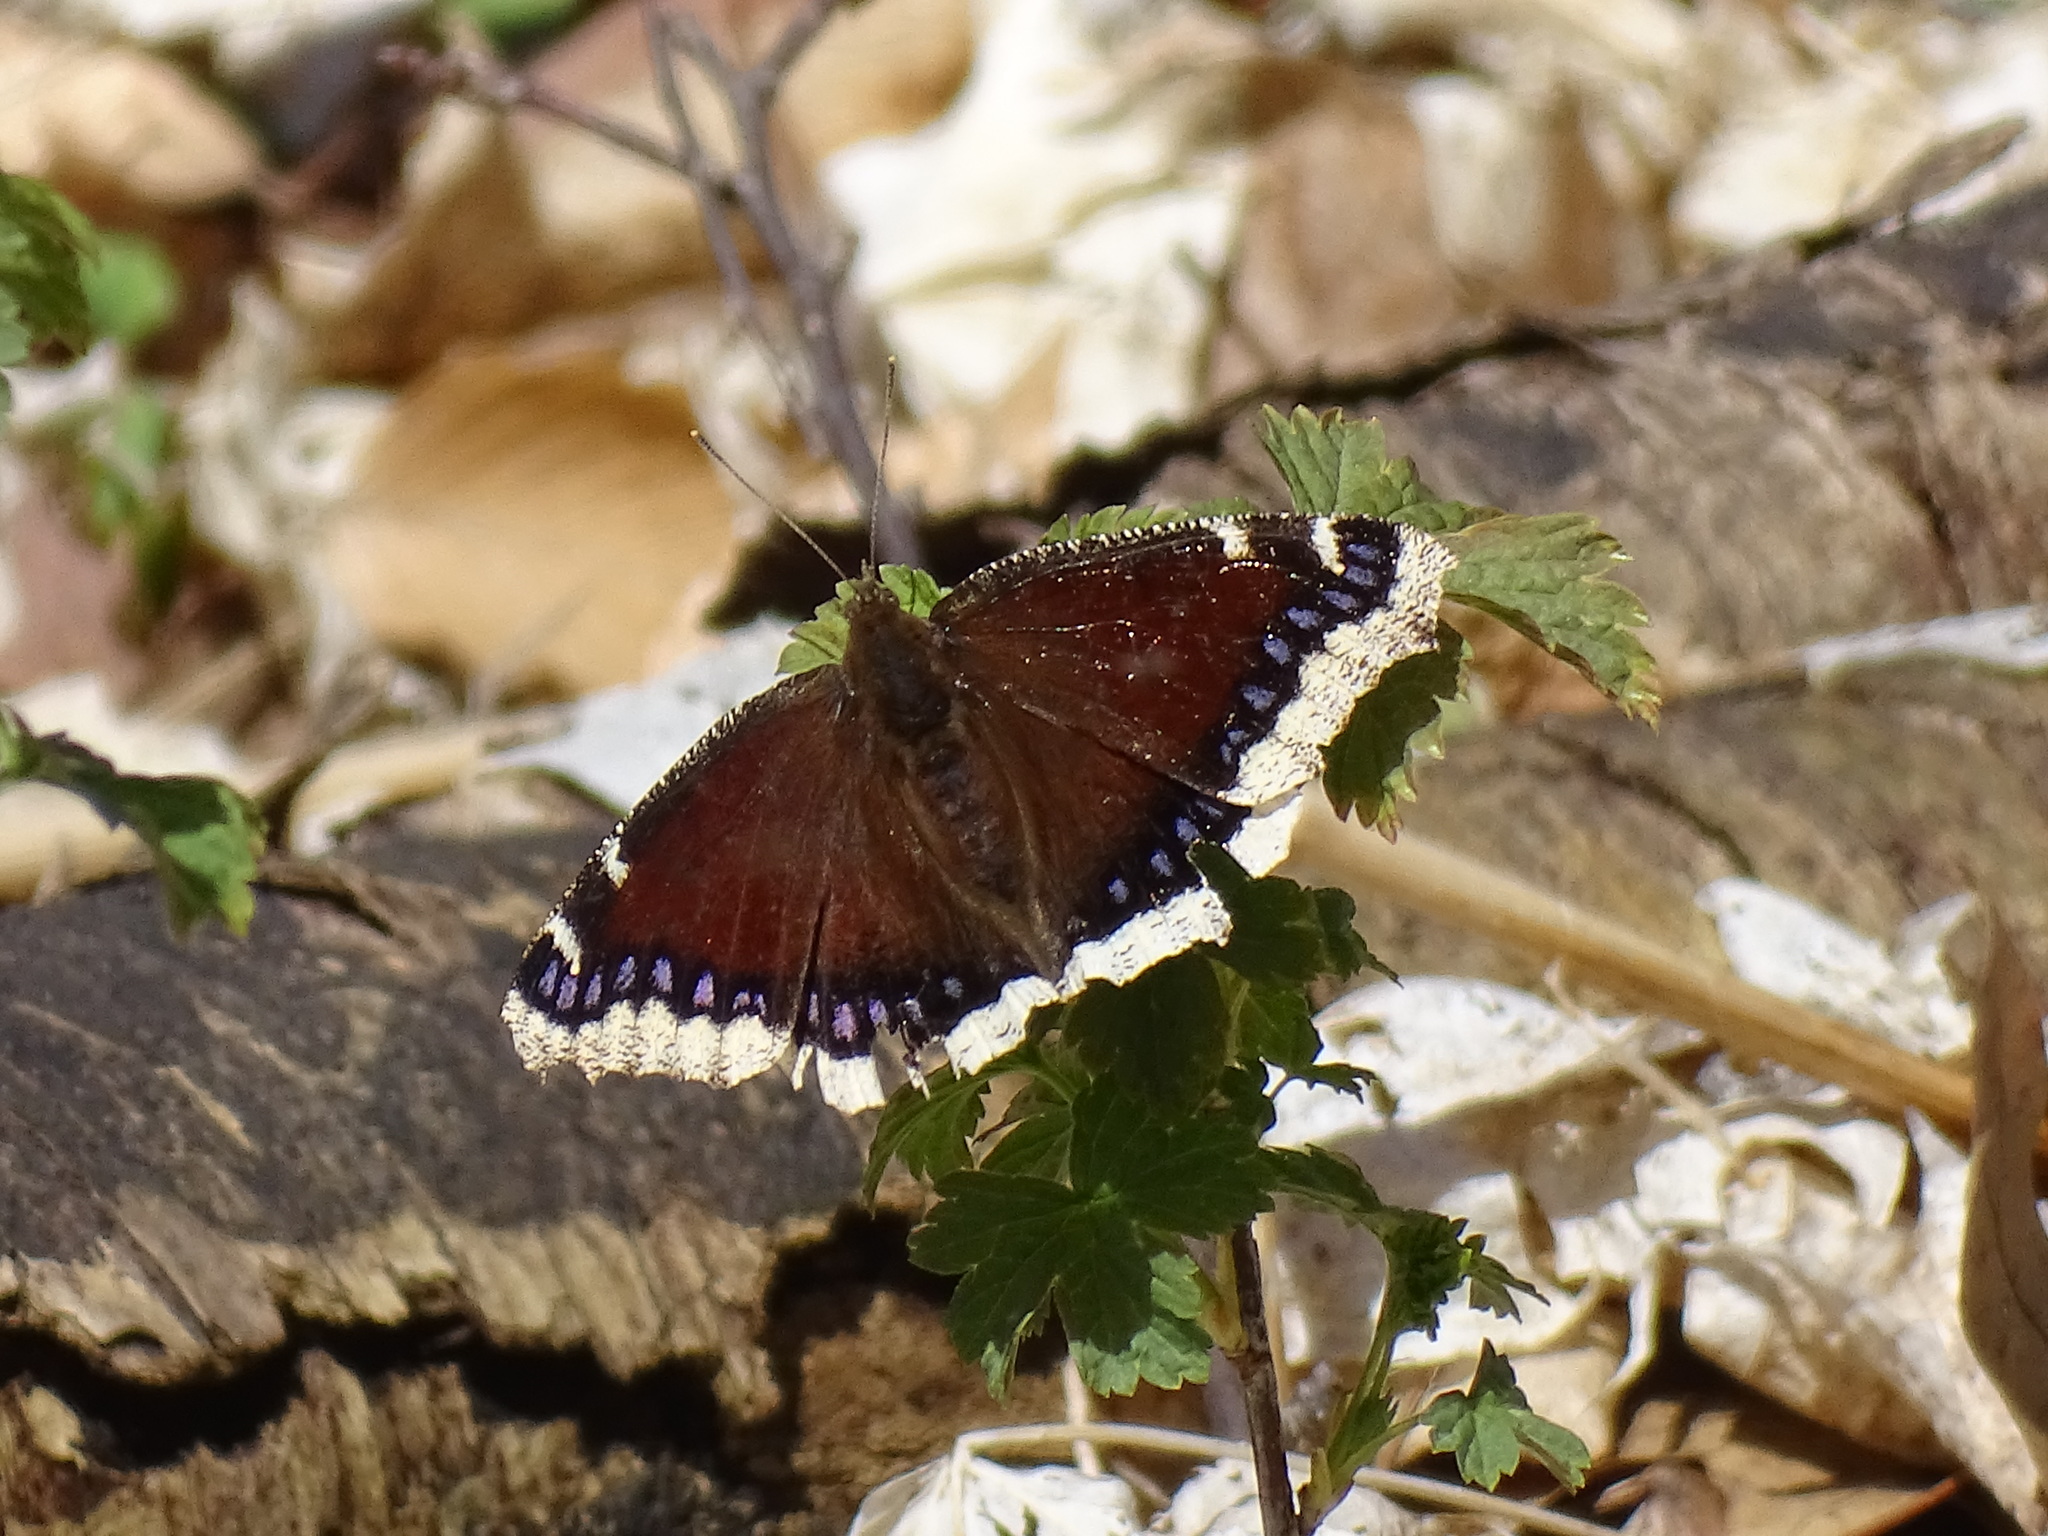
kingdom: Animalia
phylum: Arthropoda
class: Insecta
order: Lepidoptera
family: Nymphalidae
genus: Nymphalis
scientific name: Nymphalis antiopa
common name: Camberwell beauty
